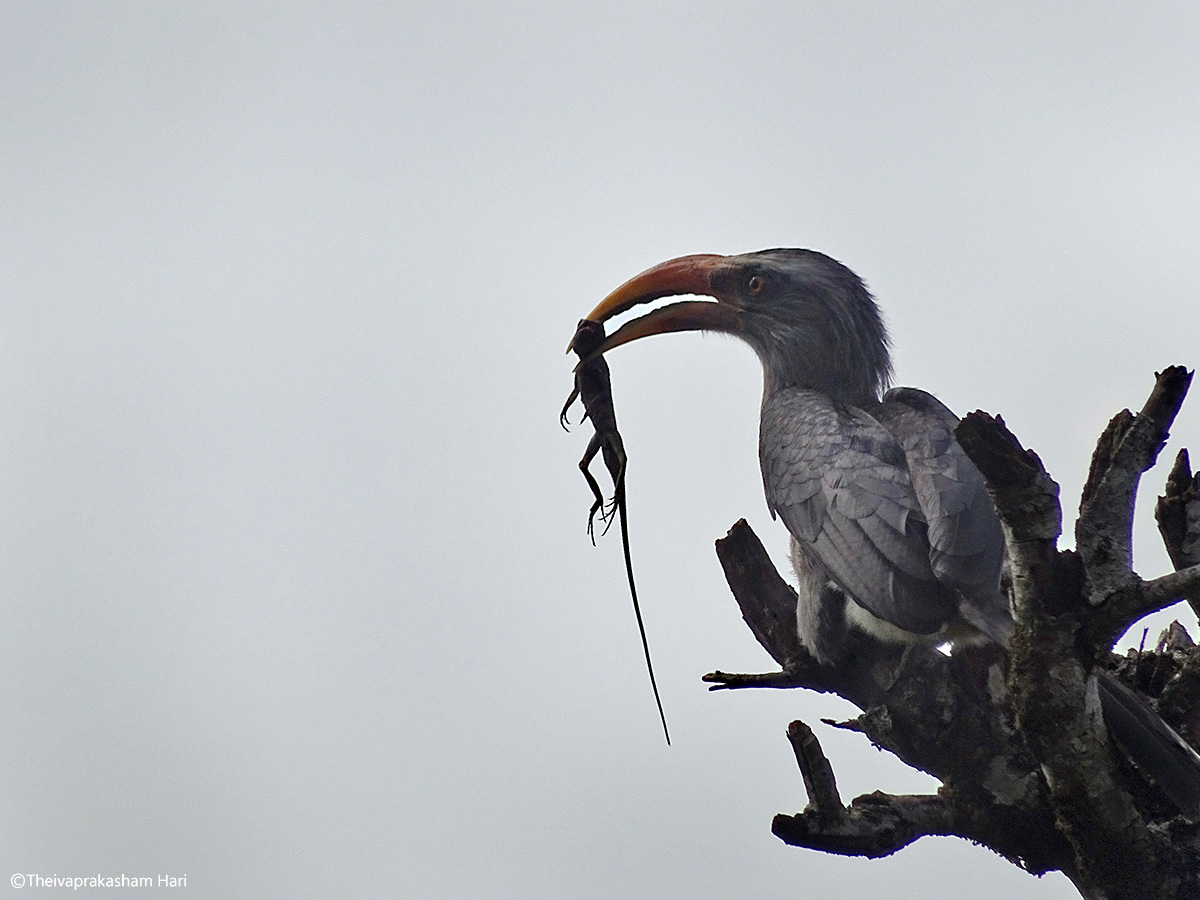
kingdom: Animalia
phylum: Chordata
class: Aves
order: Bucerotiformes
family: Bucerotidae
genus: Ocyceros
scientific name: Ocyceros griseus
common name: Malabar grey hornbill
